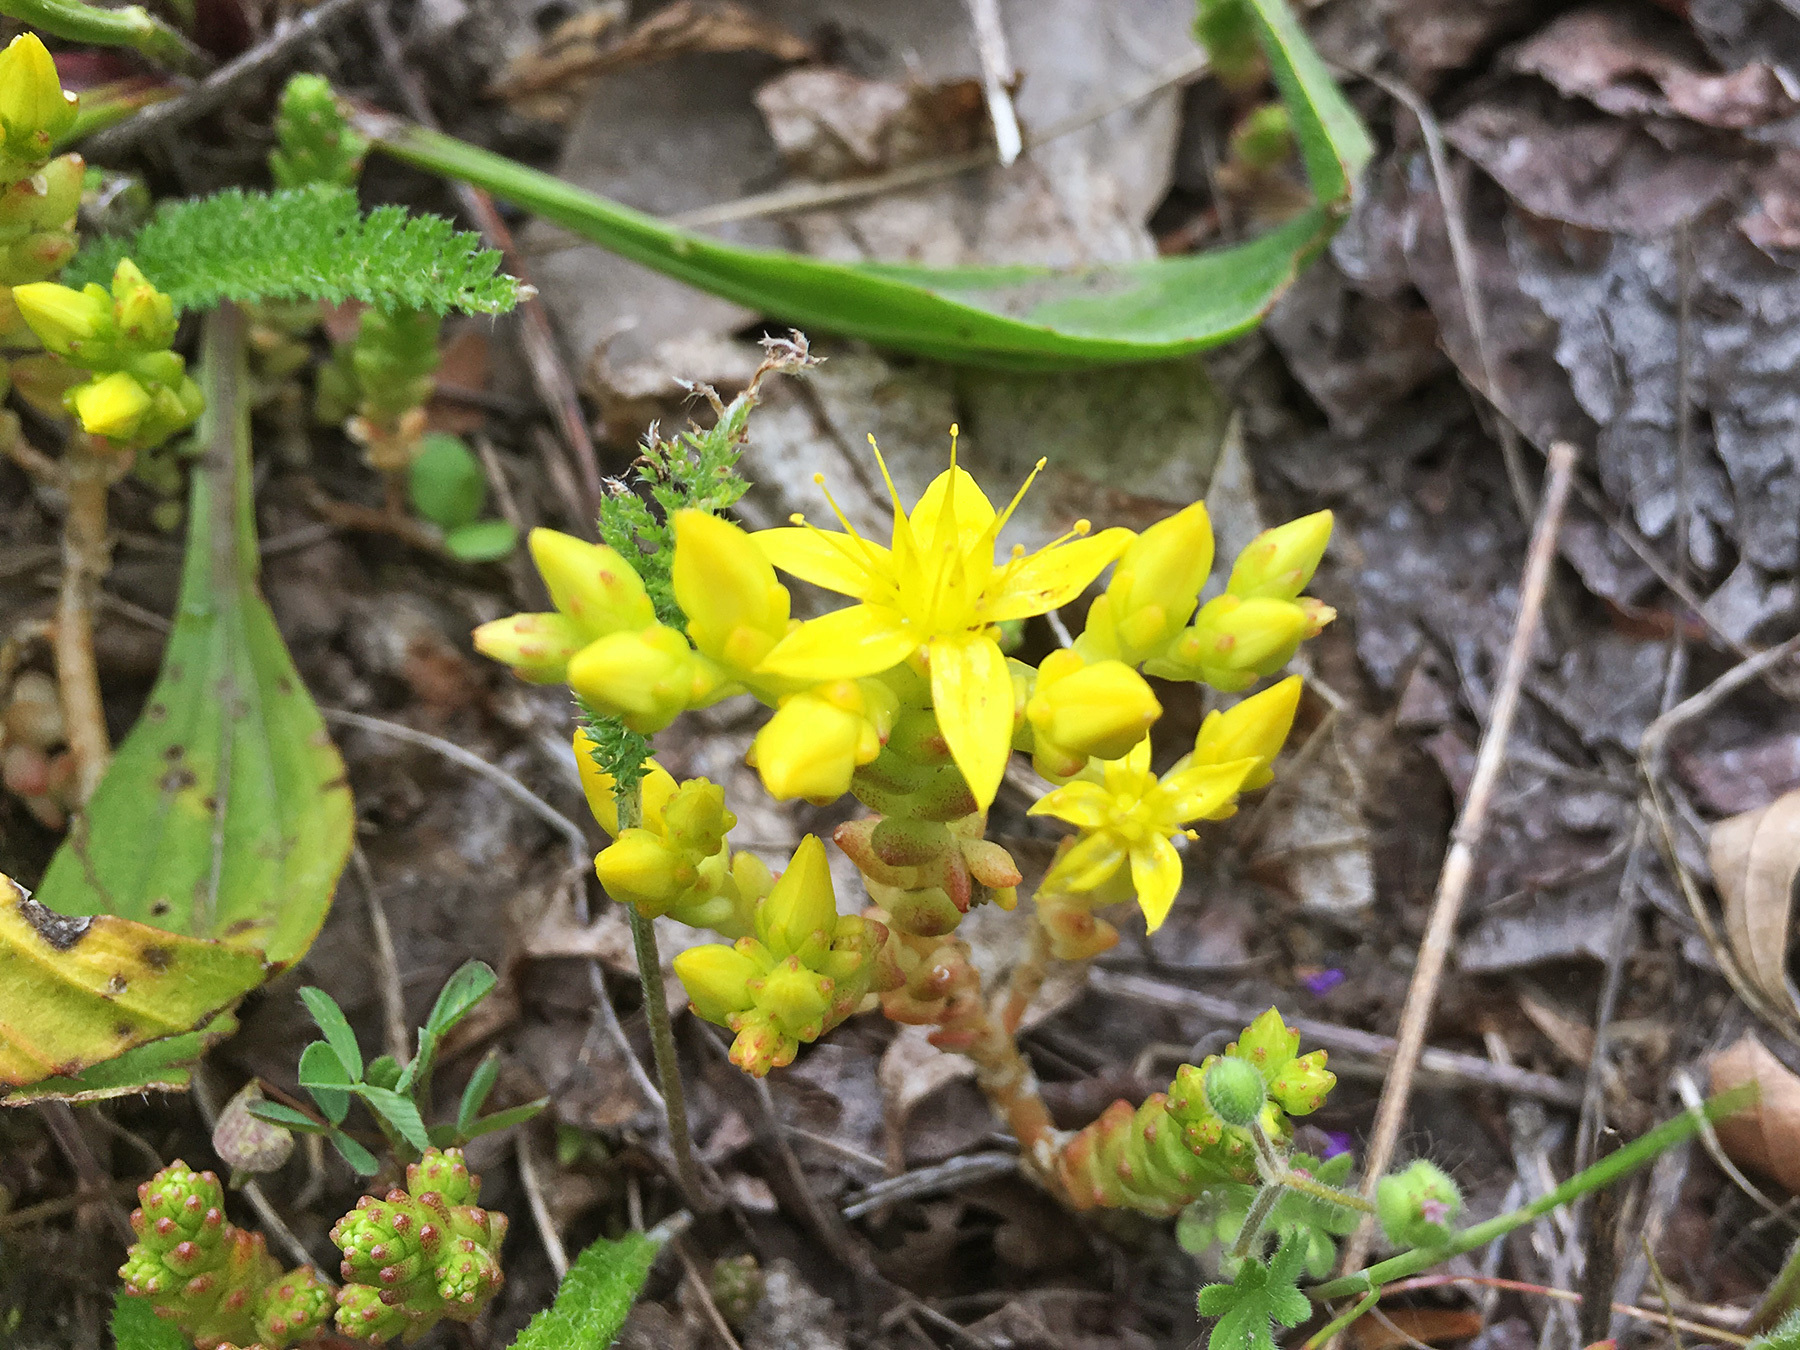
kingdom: Plantae
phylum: Tracheophyta
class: Magnoliopsida
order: Saxifragales
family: Crassulaceae
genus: Sedum
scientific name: Sedum acre
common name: Biting stonecrop
